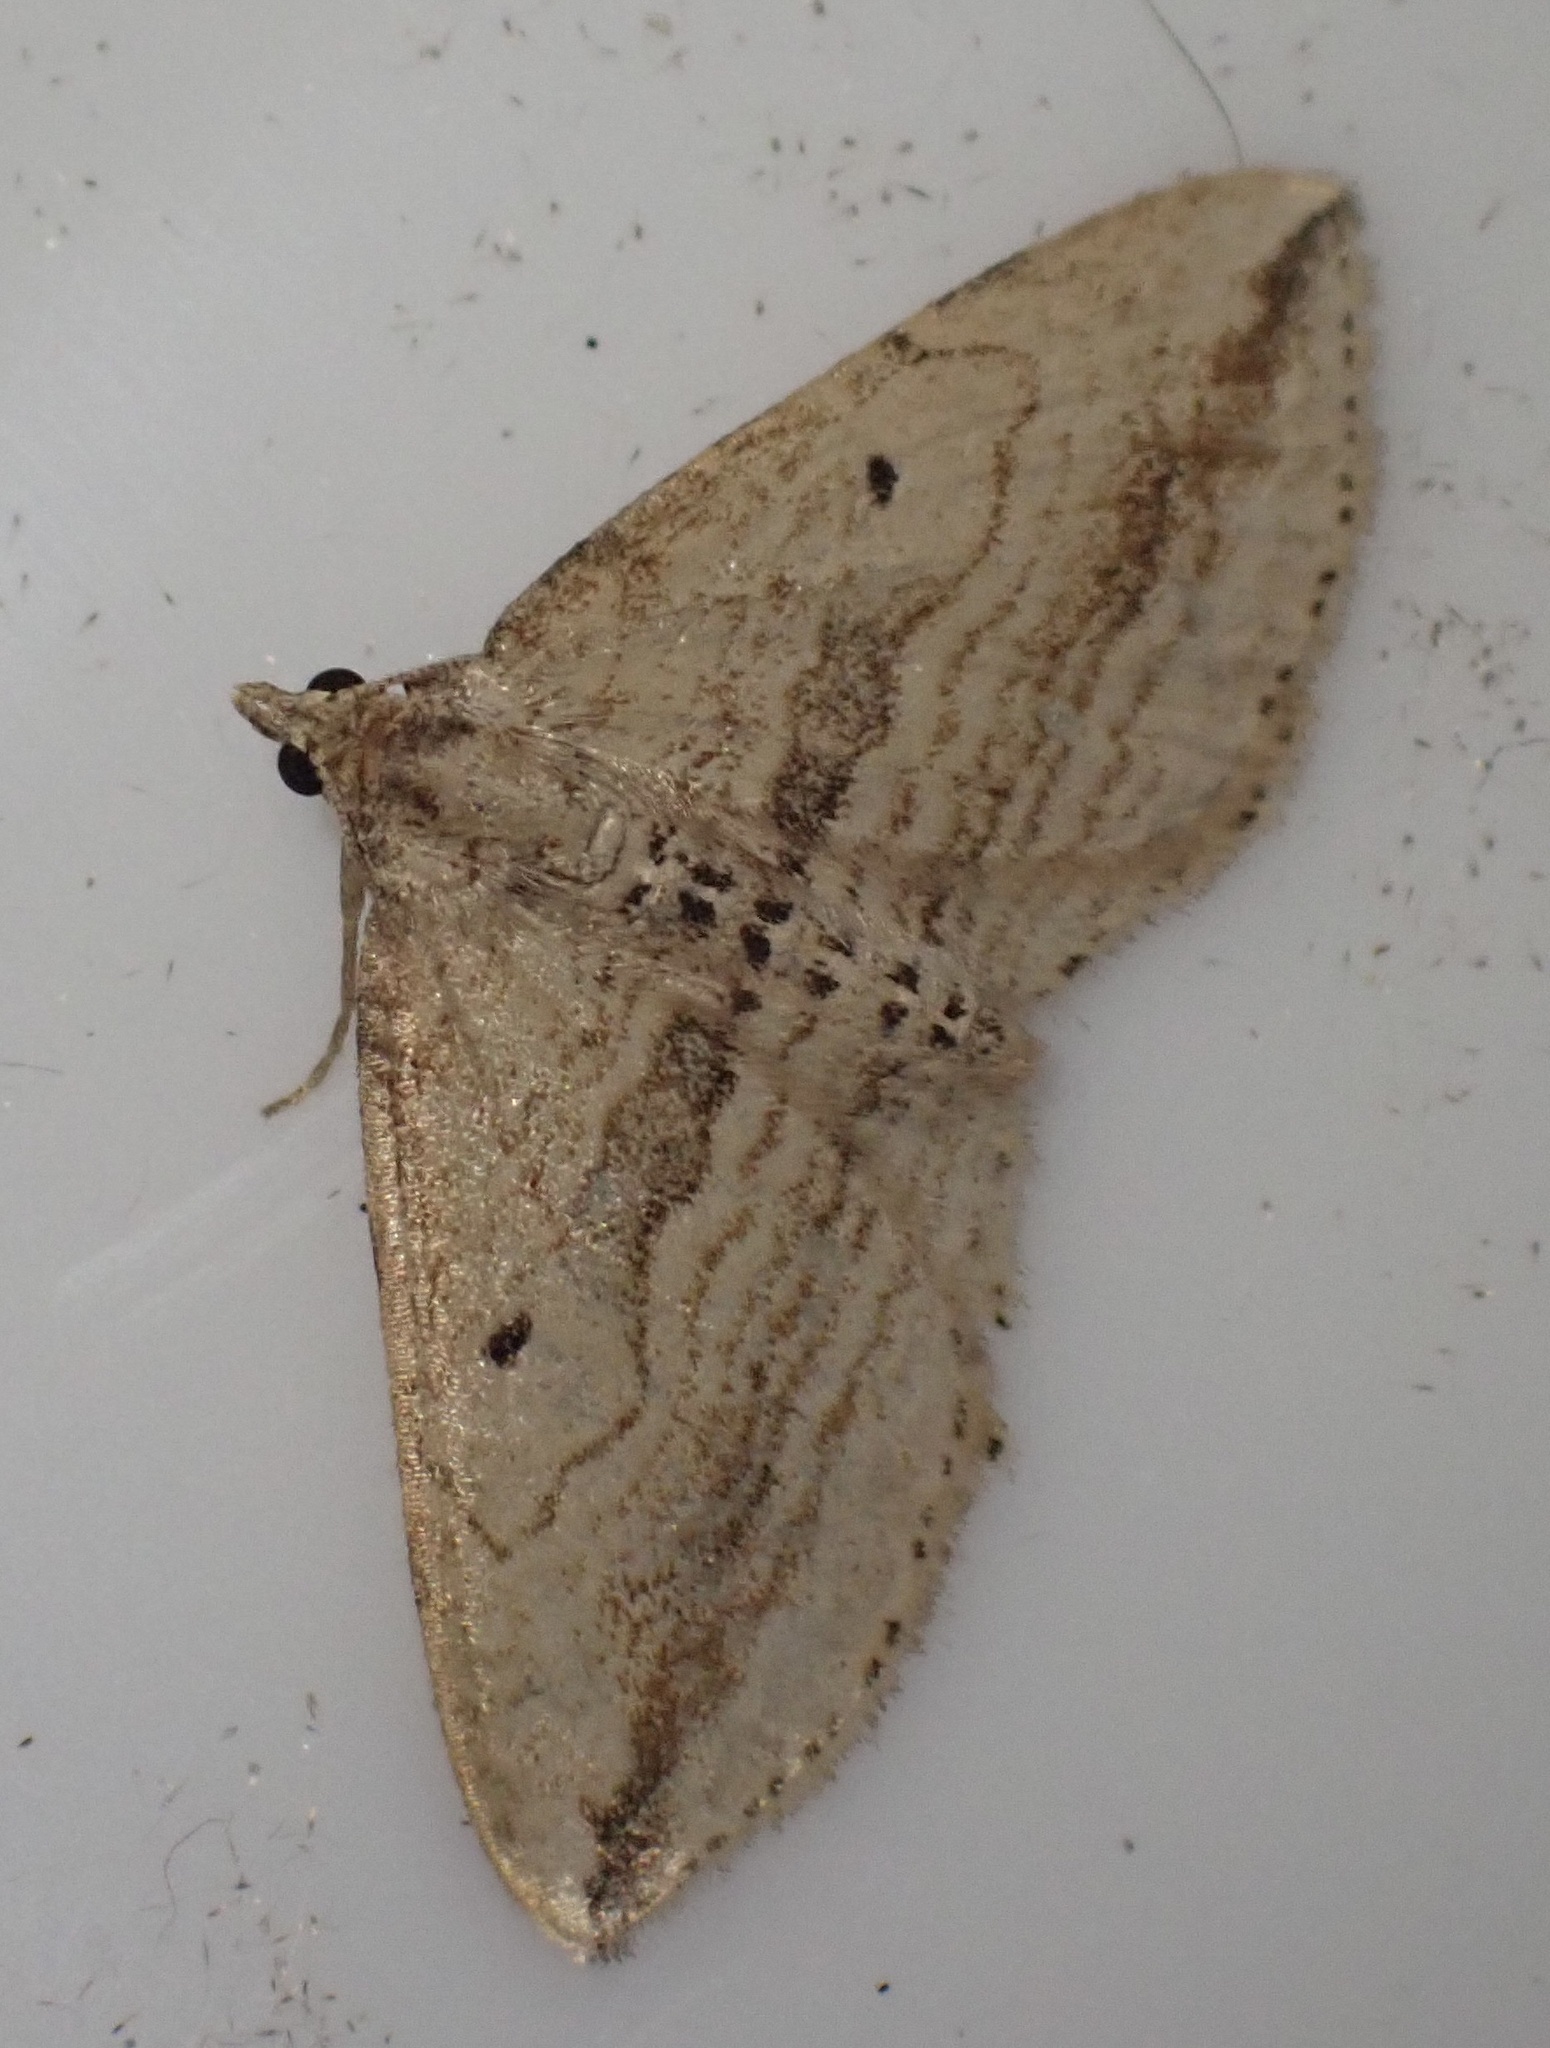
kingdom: Animalia
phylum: Arthropoda
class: Insecta
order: Lepidoptera
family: Geometridae
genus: Orthonama
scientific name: Orthonama vittata
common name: Oblique carpet
